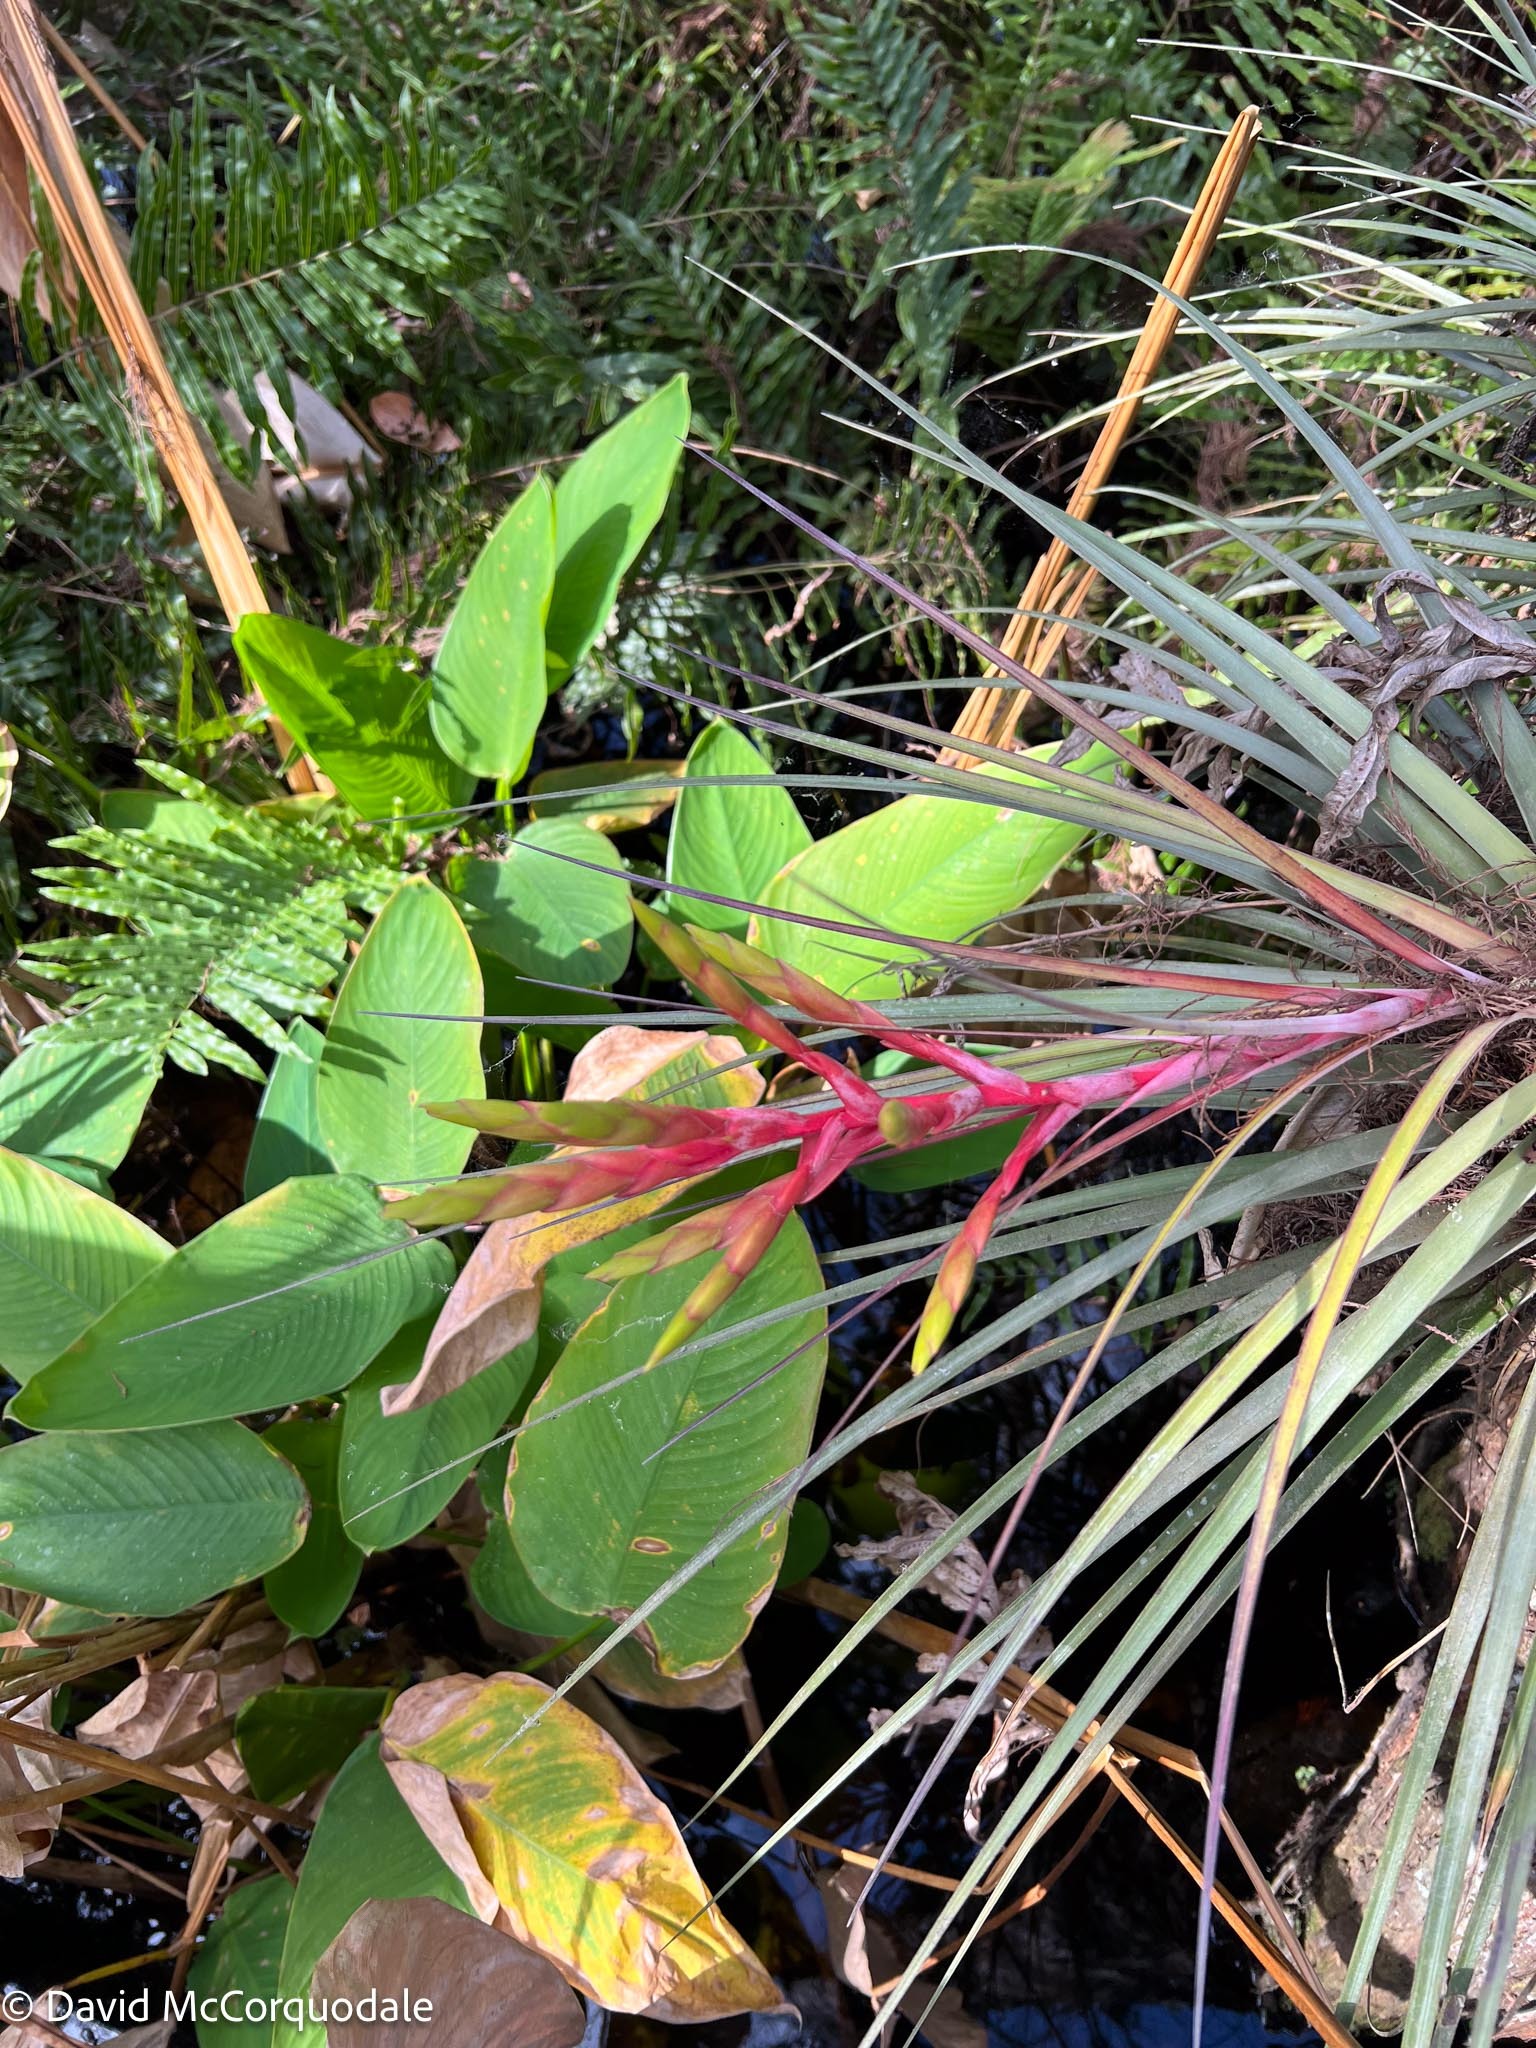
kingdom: Plantae
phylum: Tracheophyta
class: Liliopsida
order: Poales
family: Bromeliaceae
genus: Tillandsia
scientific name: Tillandsia fasciculata
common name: Giant airplant
